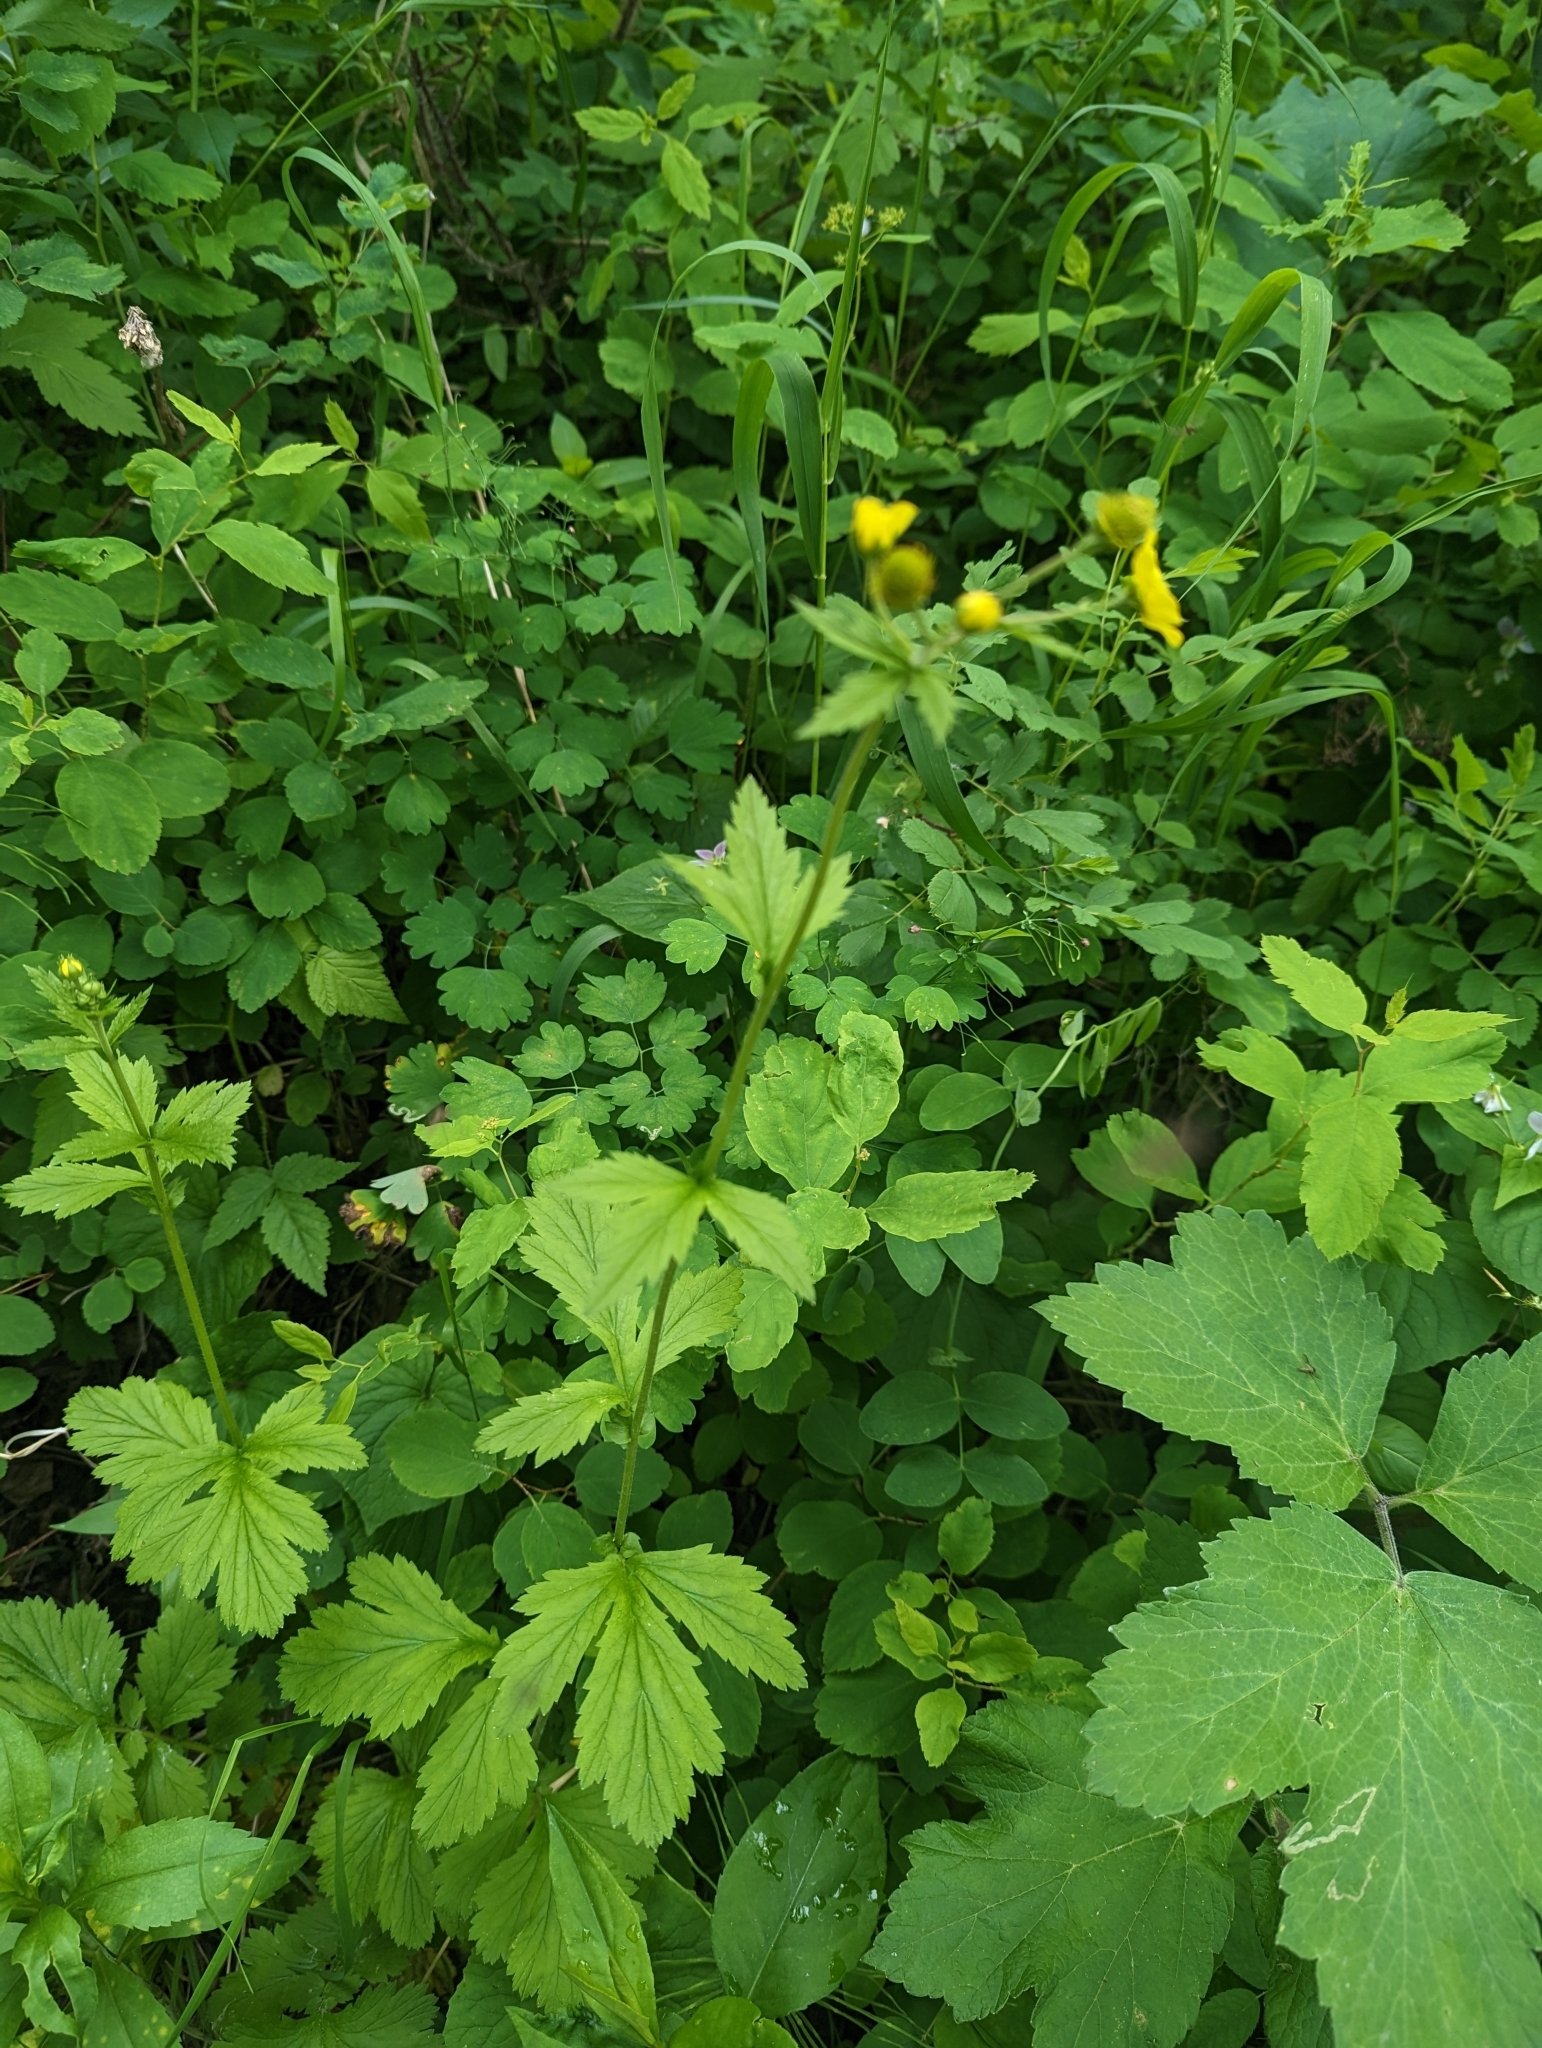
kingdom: Plantae
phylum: Tracheophyta
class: Magnoliopsida
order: Rosales
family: Rosaceae
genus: Geum
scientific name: Geum aleppicum
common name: Yellow avens
